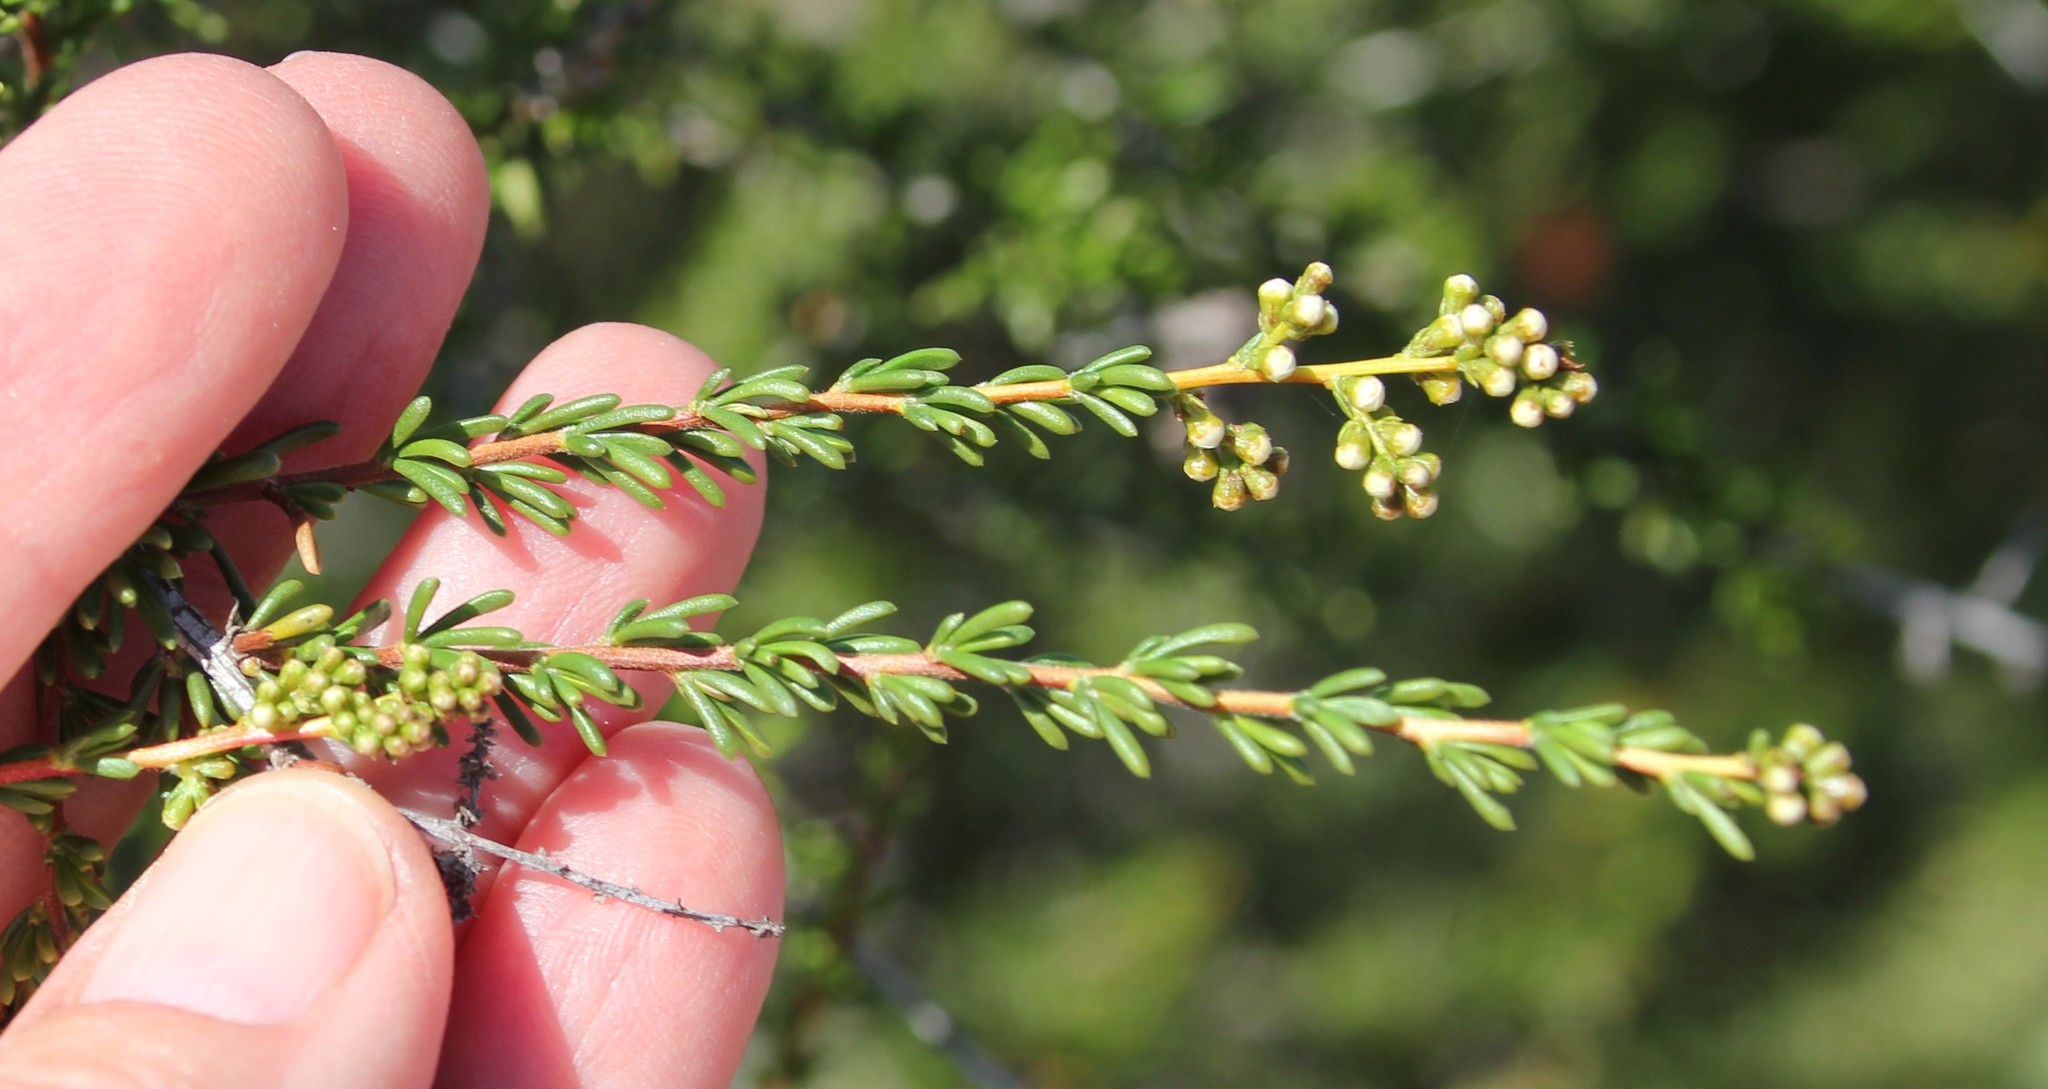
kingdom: Plantae
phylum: Tracheophyta
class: Magnoliopsida
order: Rosales
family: Rosaceae
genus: Adenostoma
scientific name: Adenostoma fasciculatum
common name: Chamise
